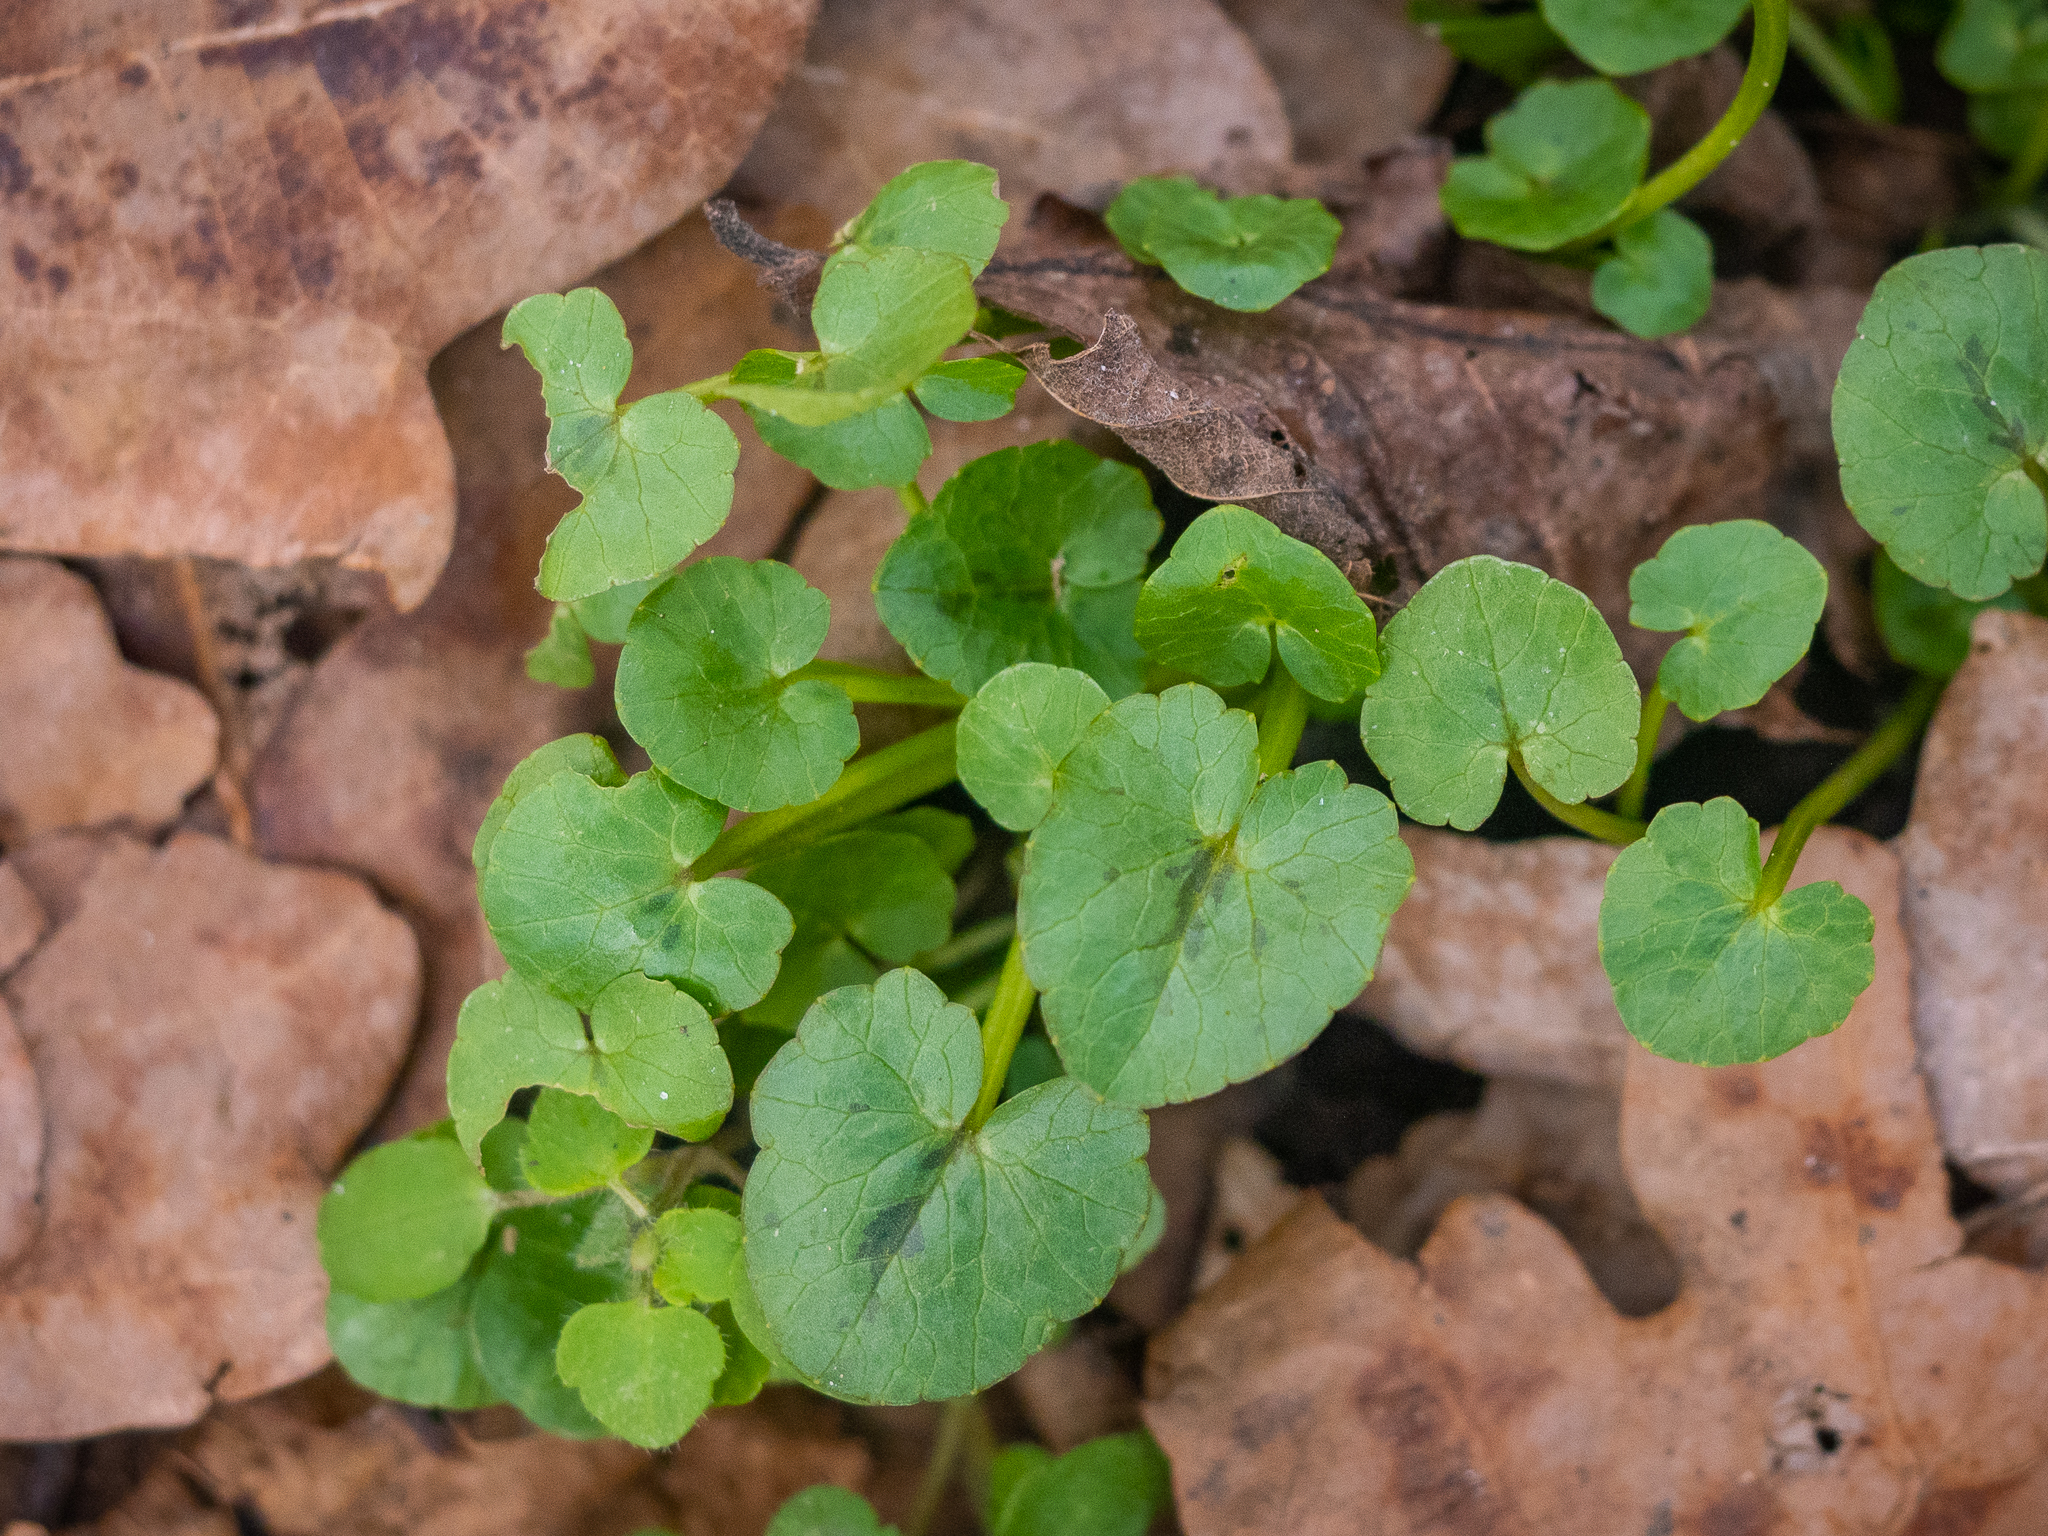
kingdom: Plantae
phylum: Tracheophyta
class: Magnoliopsida
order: Ranunculales
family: Ranunculaceae
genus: Ficaria
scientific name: Ficaria verna
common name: Lesser celandine
